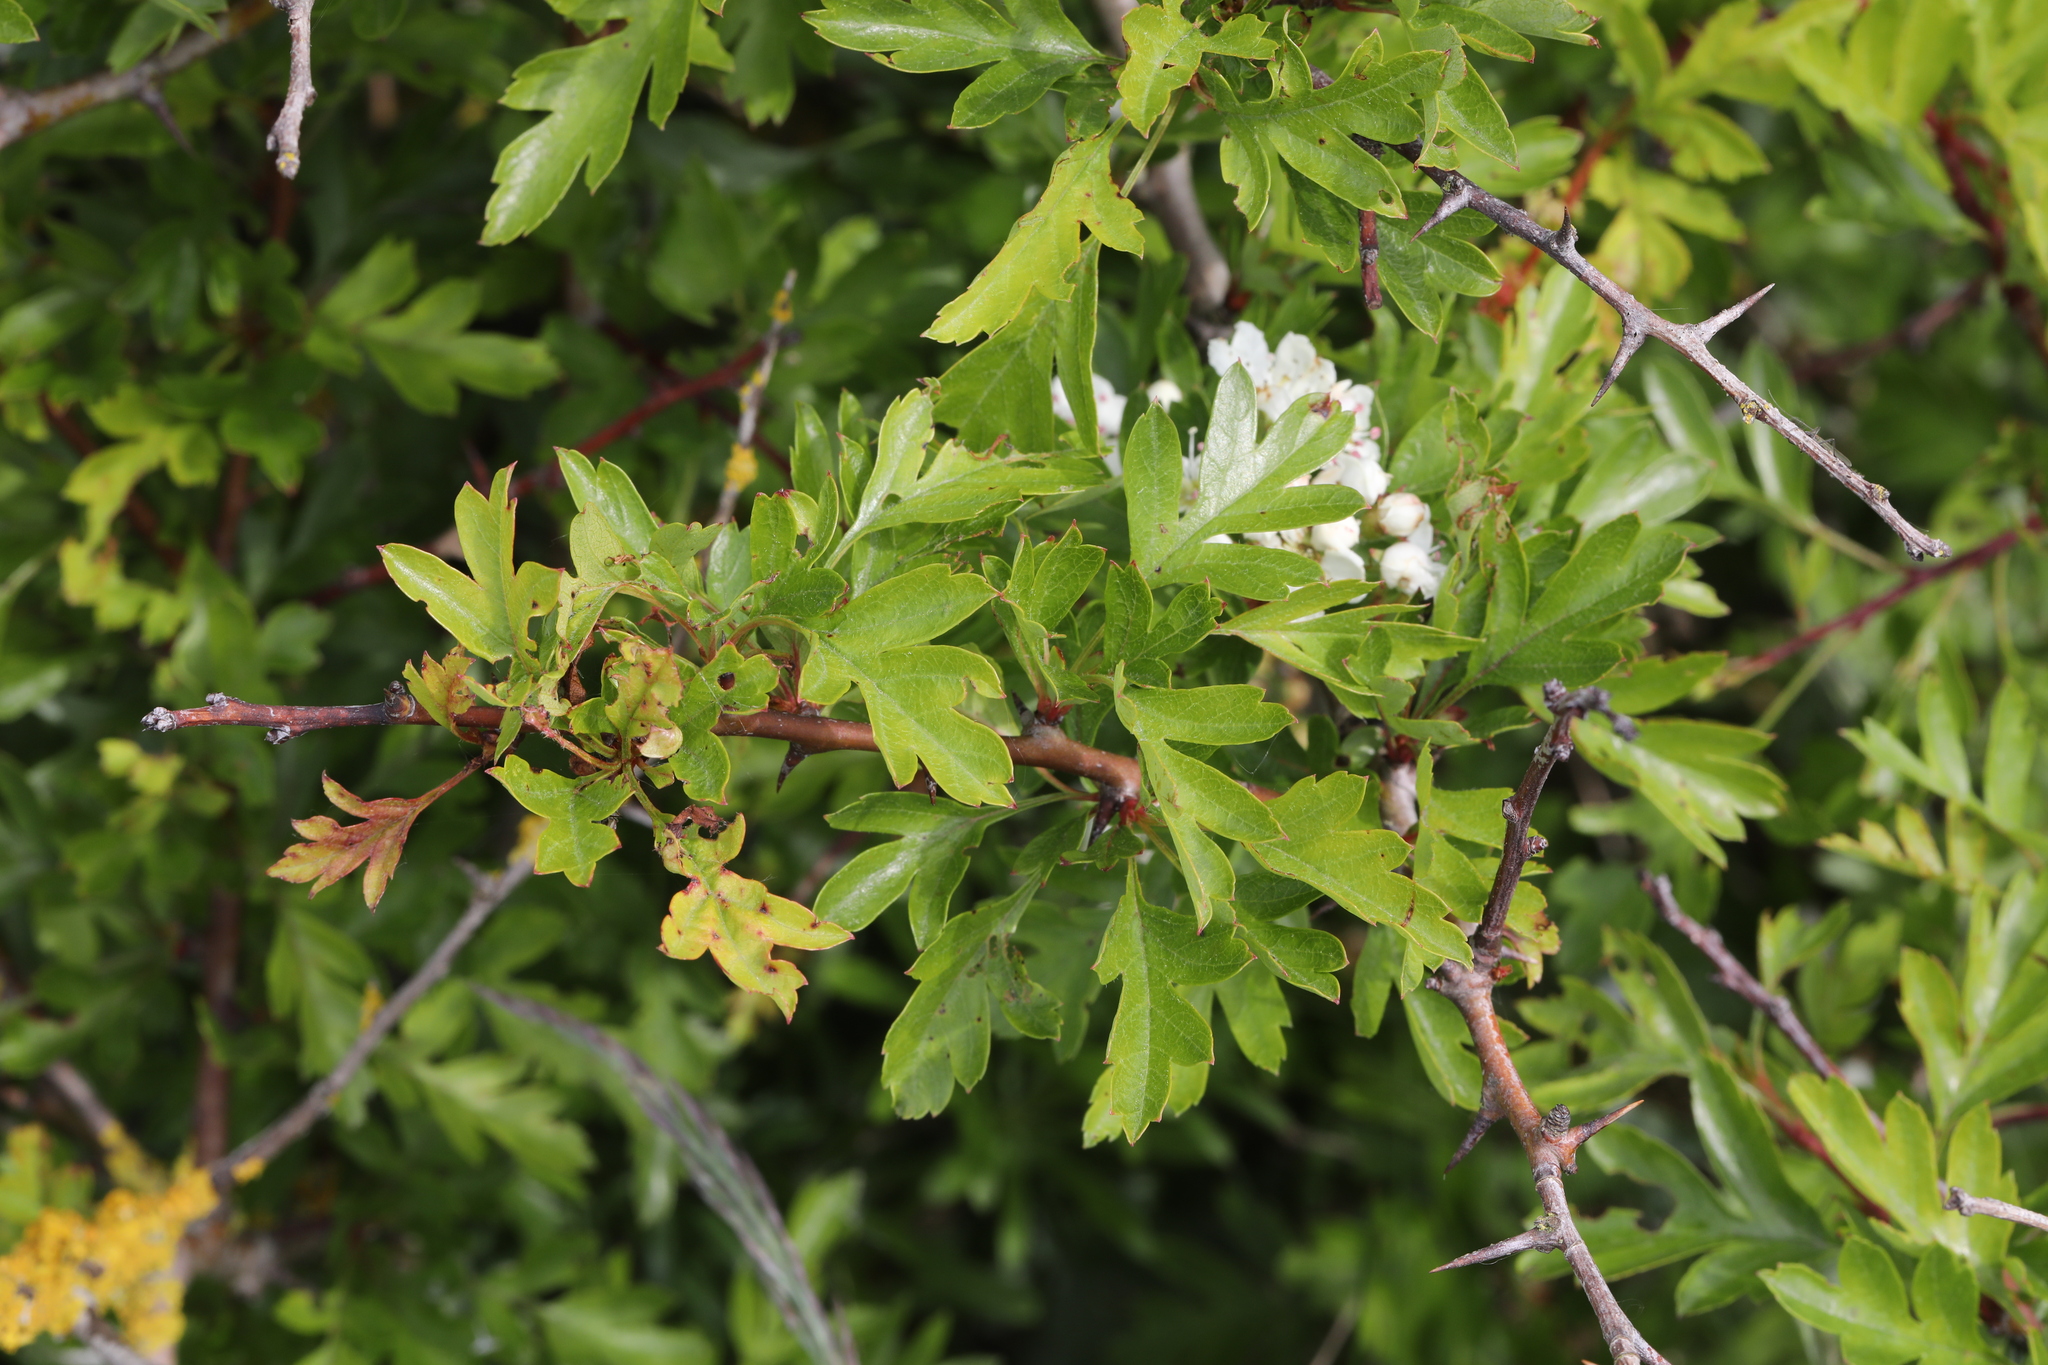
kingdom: Plantae
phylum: Tracheophyta
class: Magnoliopsida
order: Rosales
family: Rosaceae
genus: Crataegus
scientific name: Crataegus monogyna
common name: Hawthorn
